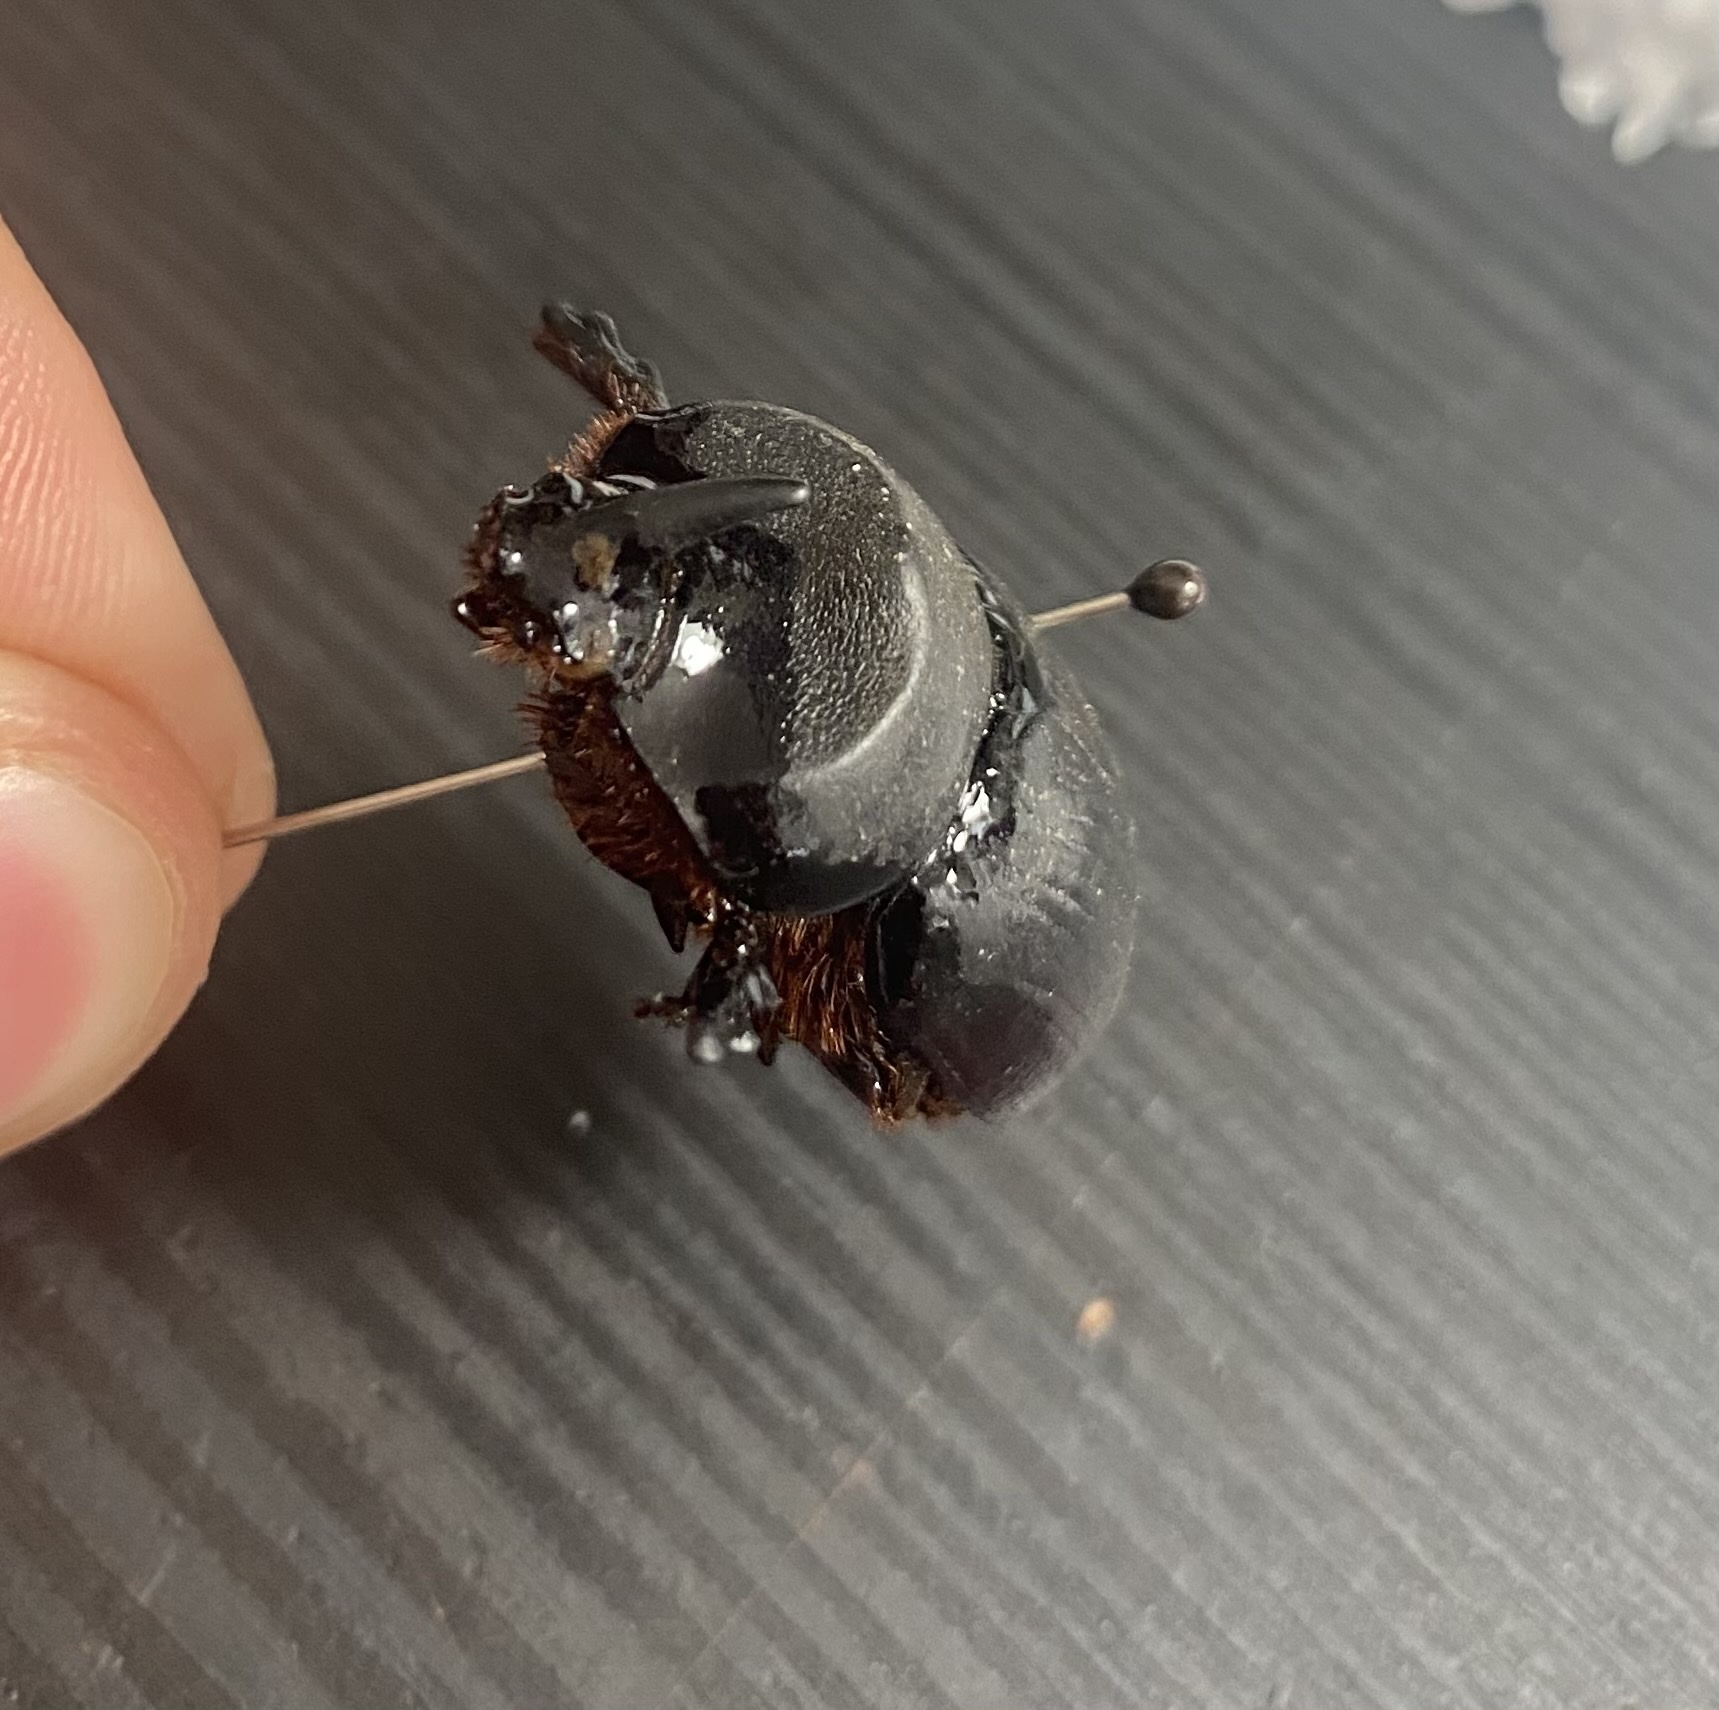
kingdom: Animalia
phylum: Arthropoda
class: Insecta
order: Coleoptera
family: Scarabaeidae
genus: Xyloryctes
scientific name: Xyloryctes thestalus
